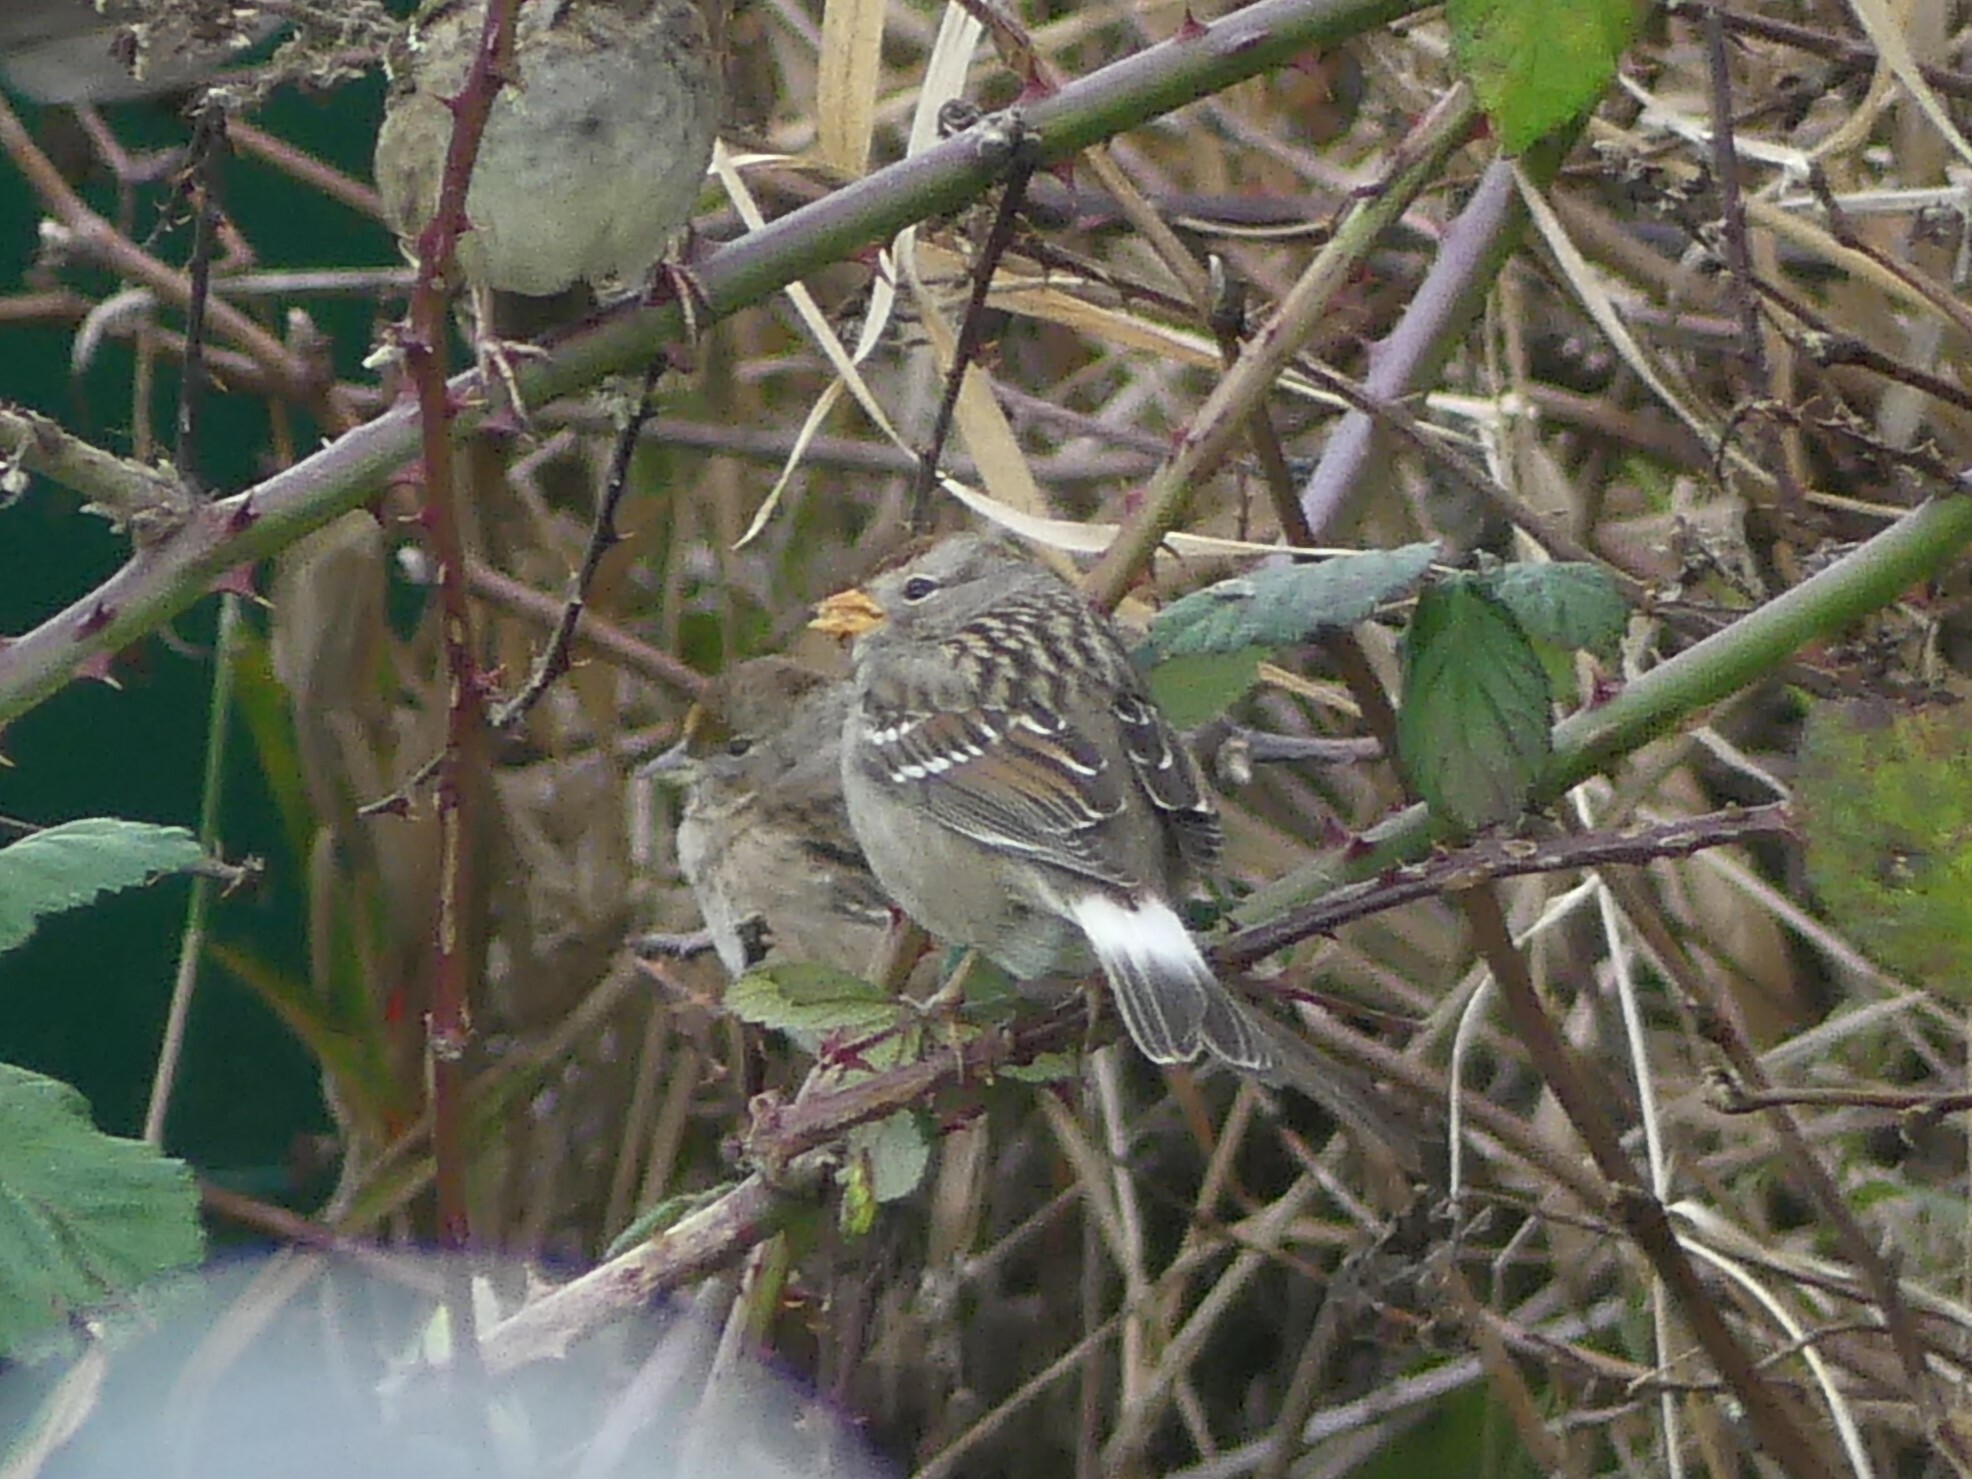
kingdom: Animalia
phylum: Chordata
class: Aves
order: Passeriformes
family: Passerellidae
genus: Zonotrichia
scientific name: Zonotrichia leucophrys
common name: White-crowned sparrow
